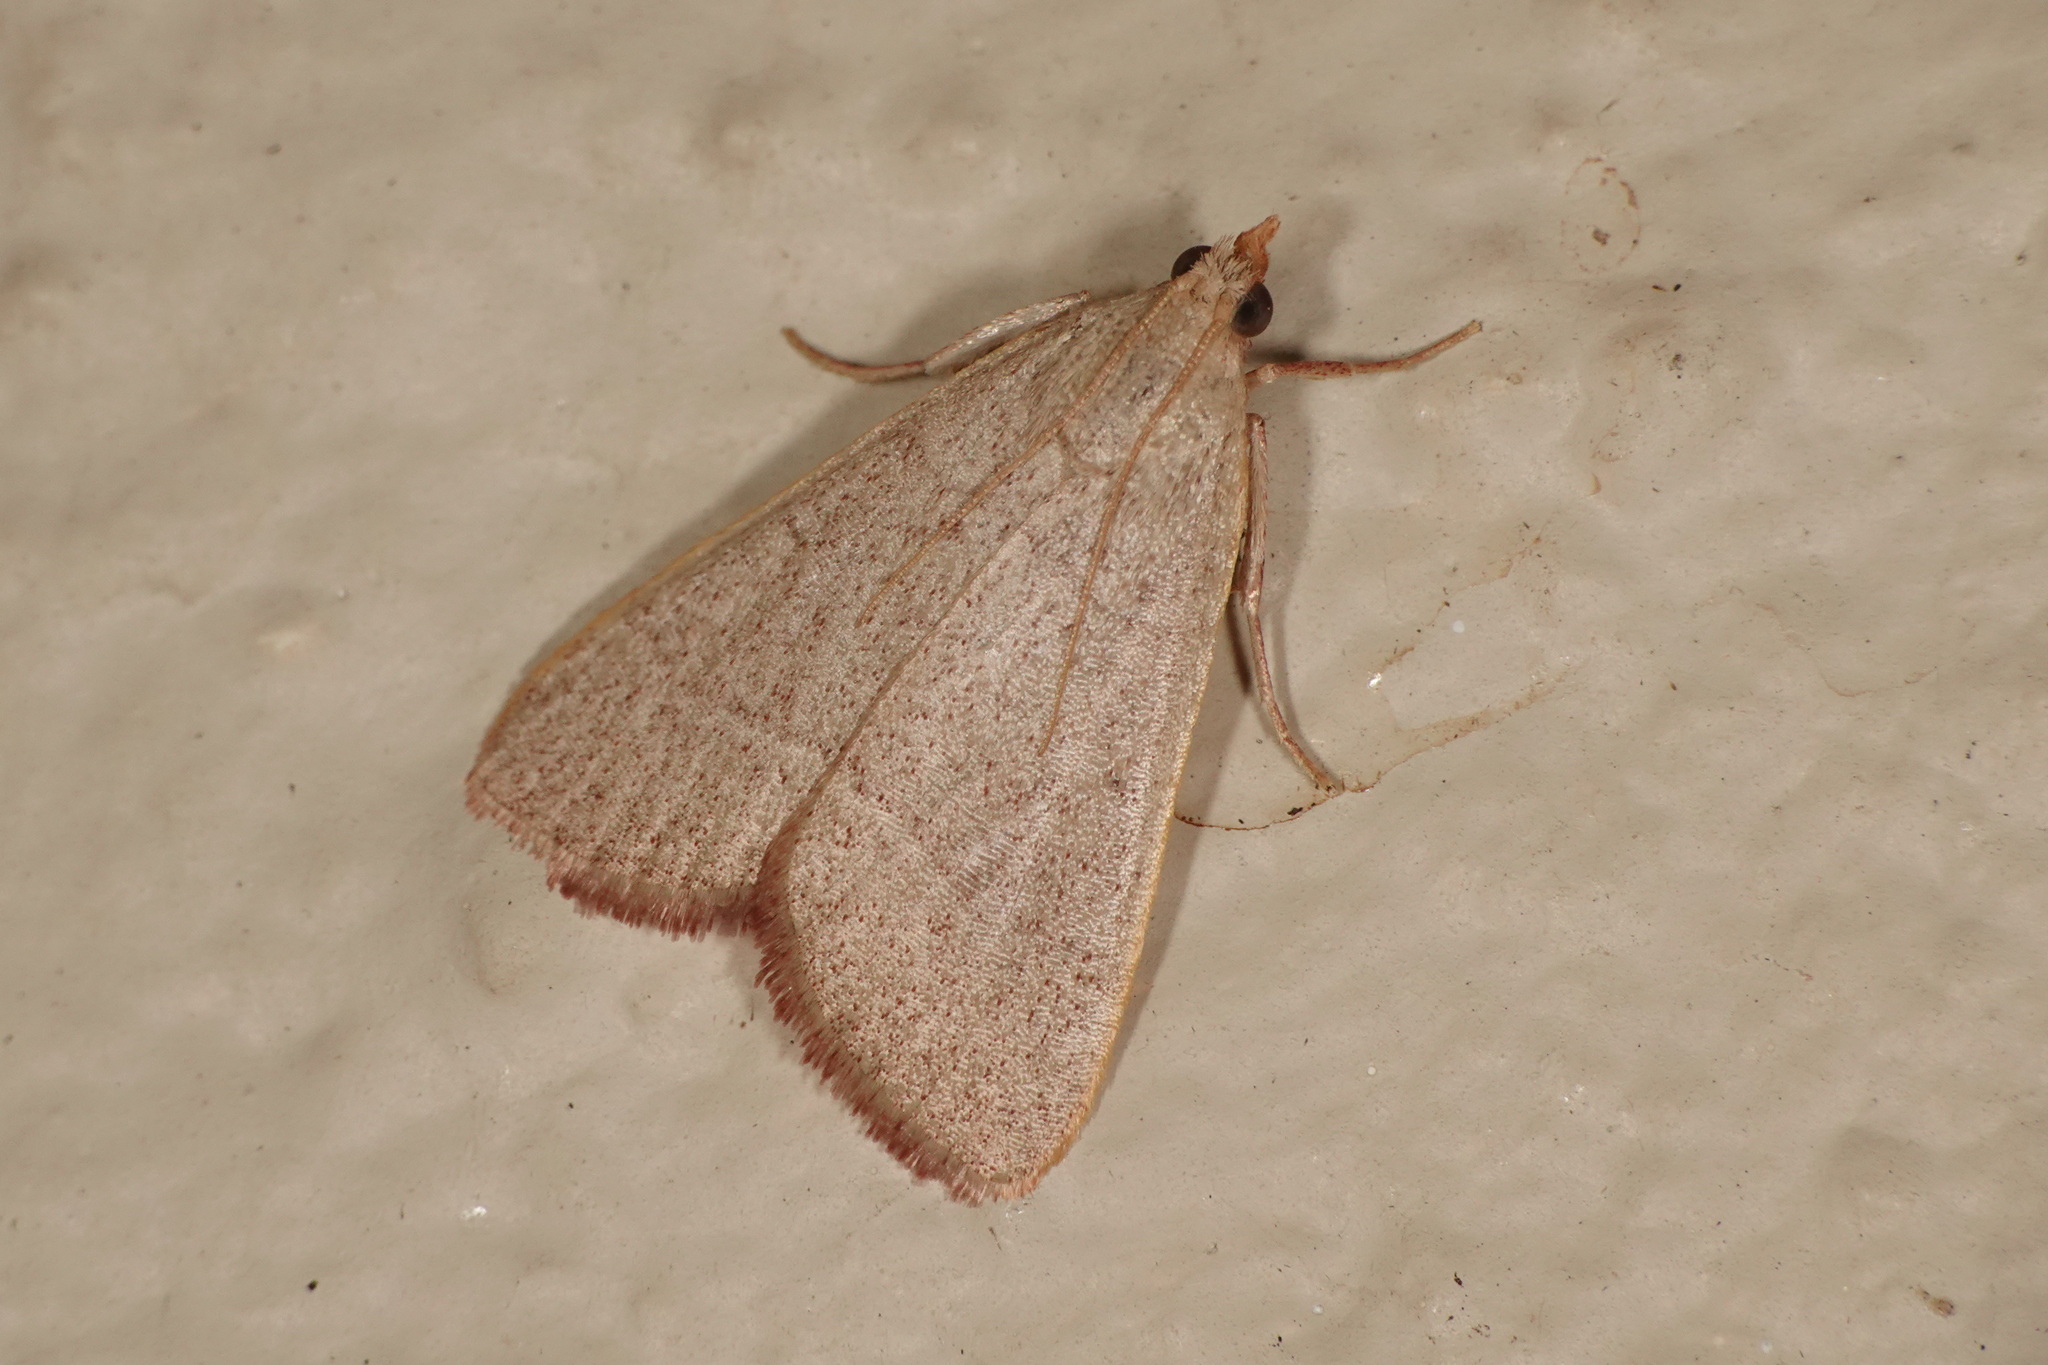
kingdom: Animalia
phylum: Arthropoda
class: Insecta
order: Lepidoptera
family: Pyralidae
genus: Hypsopygia
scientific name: Hypsopygia
